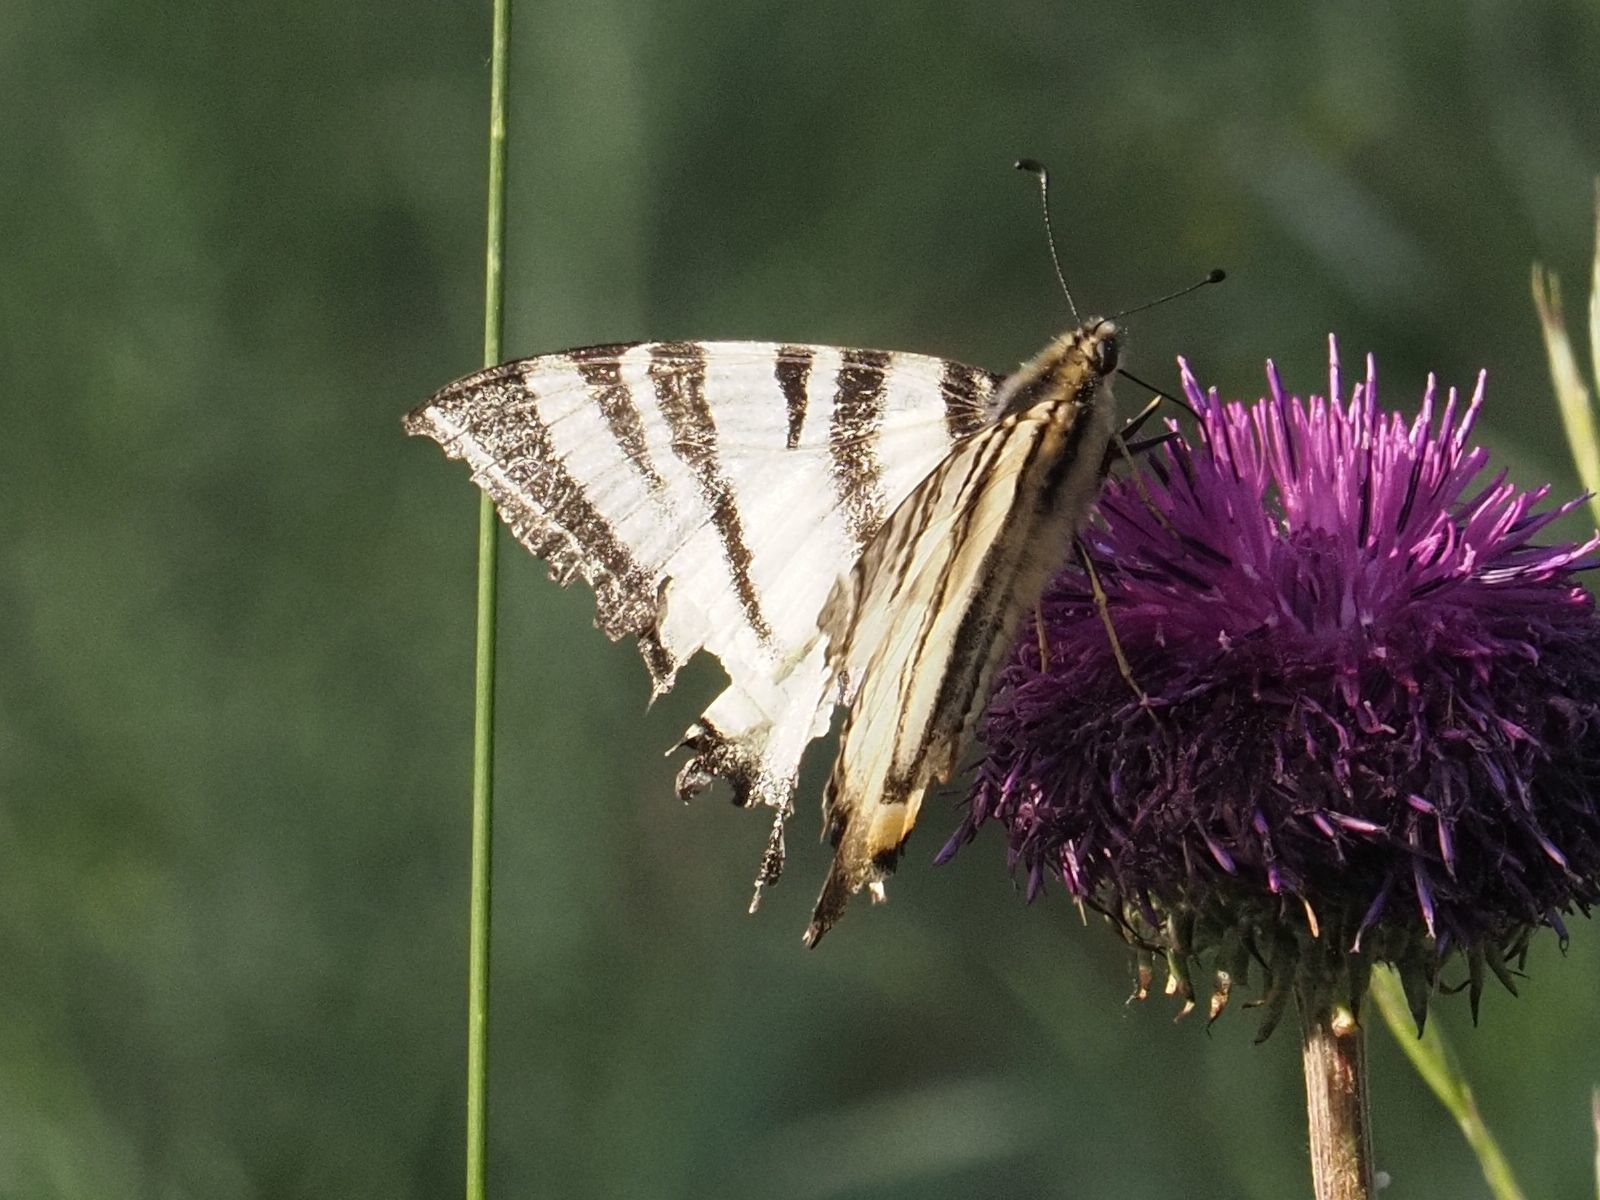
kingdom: Animalia
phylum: Arthropoda
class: Insecta
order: Lepidoptera
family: Papilionidae
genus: Iphiclides
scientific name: Iphiclides podalirius
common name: Scarce swallowtail
